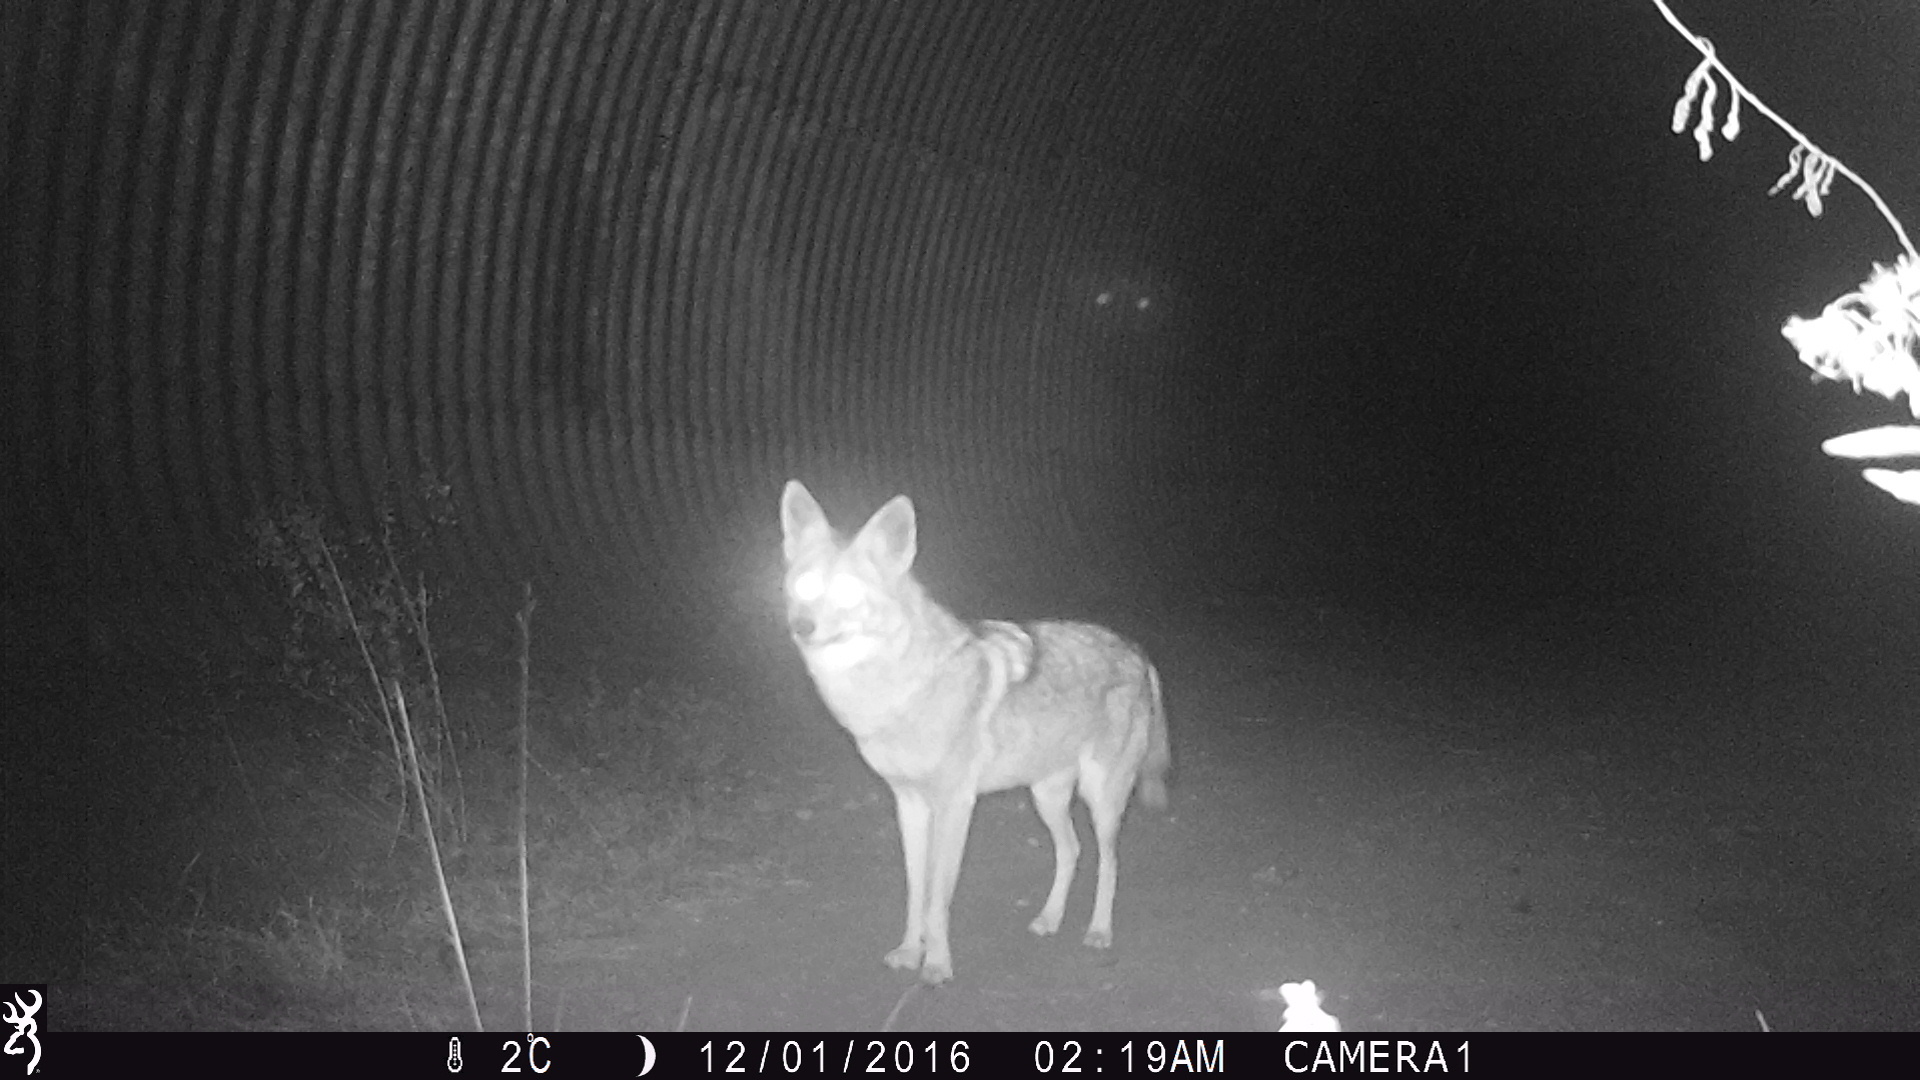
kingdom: Animalia
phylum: Chordata
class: Mammalia
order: Carnivora
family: Canidae
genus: Canis
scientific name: Canis latrans
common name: Coyote
